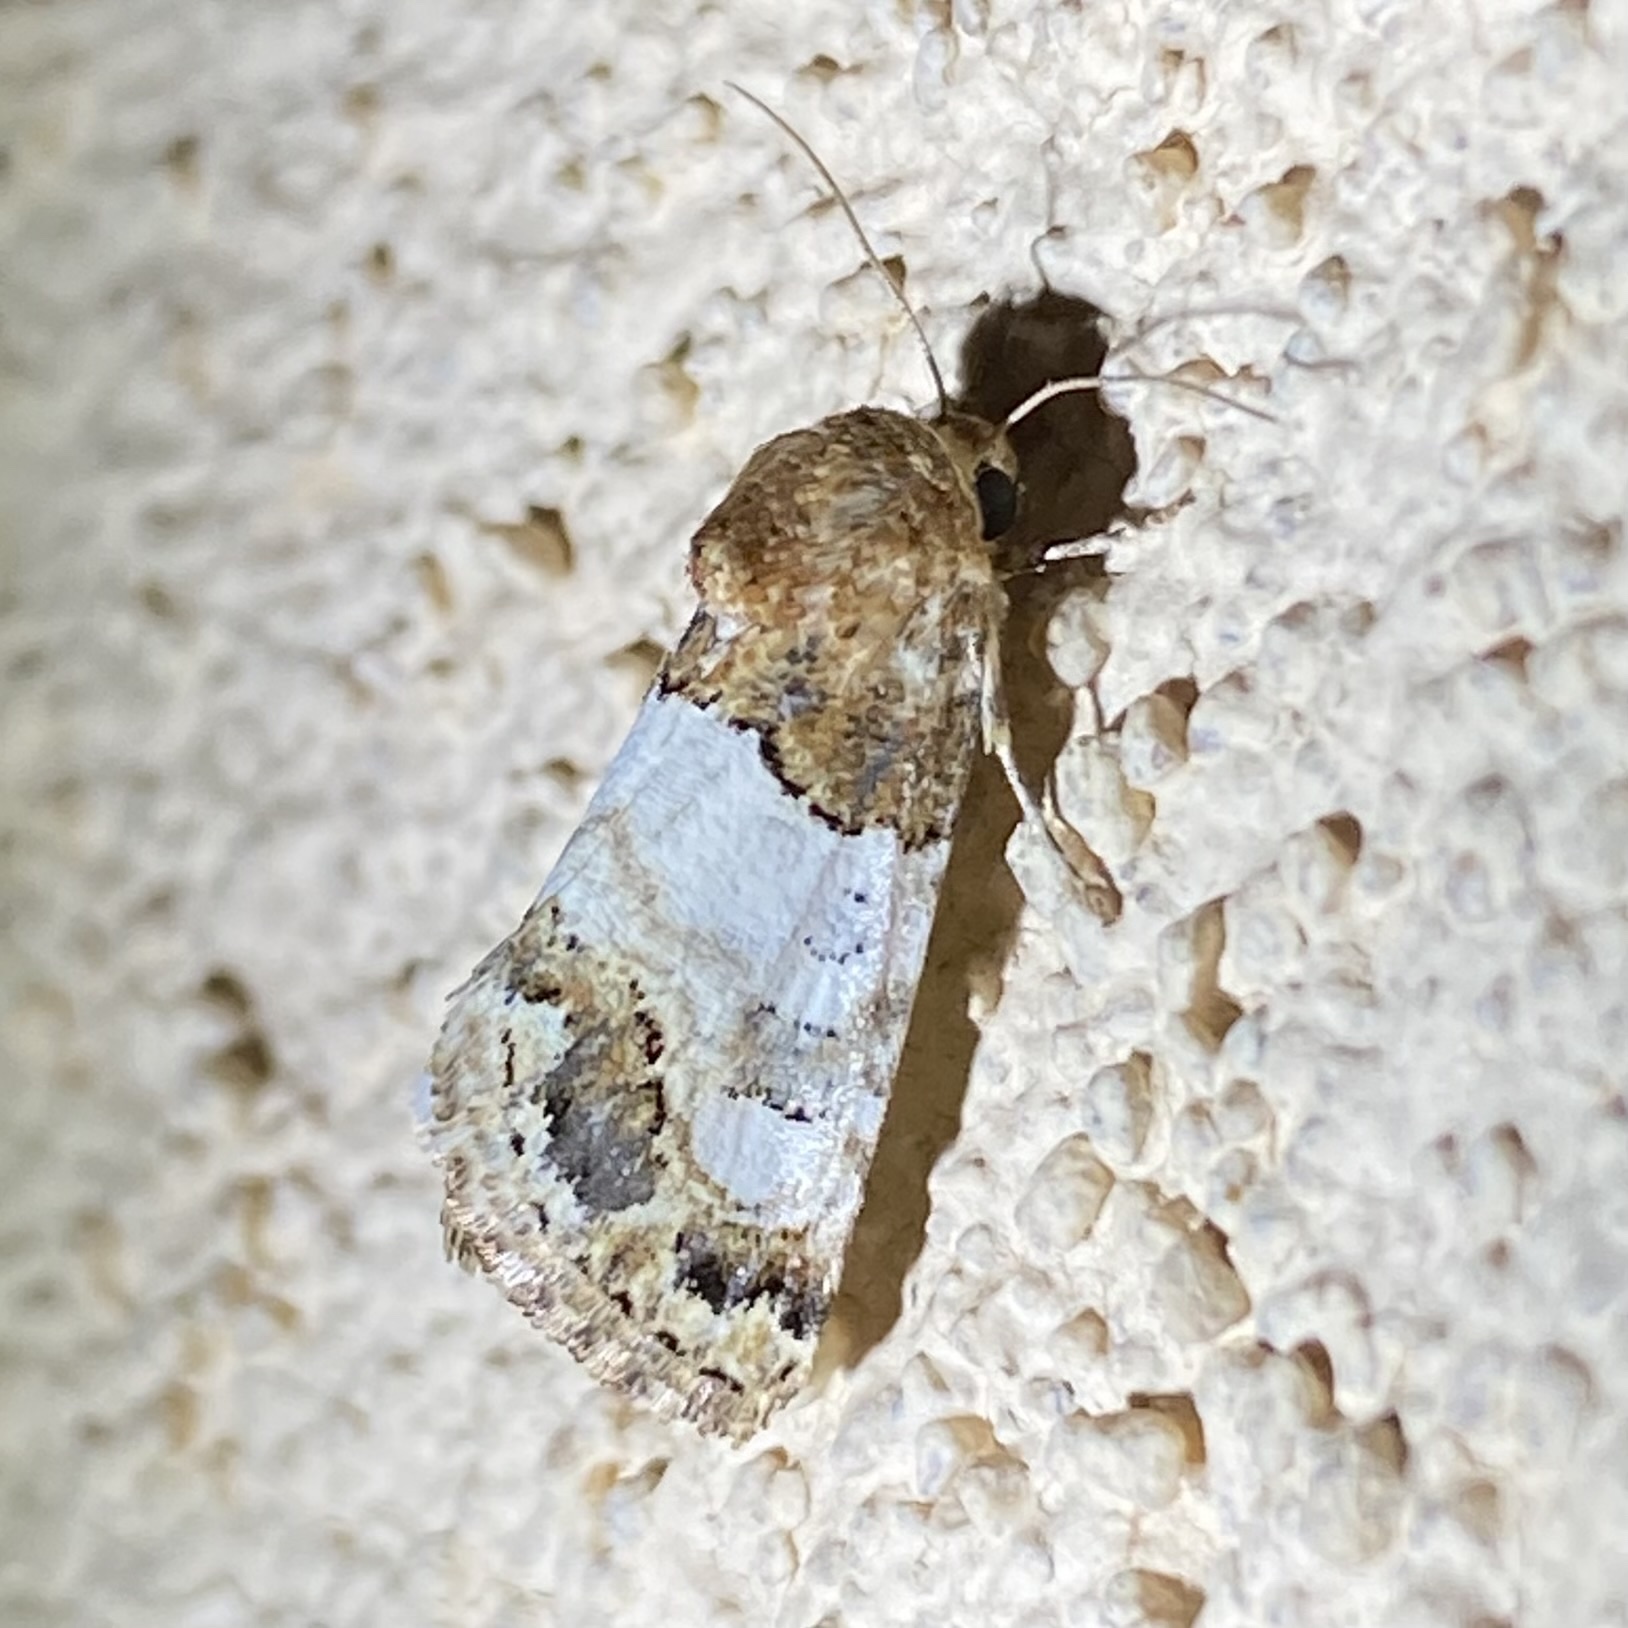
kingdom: Animalia
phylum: Arthropoda
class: Insecta
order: Lepidoptera
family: Noctuidae
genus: Schinia
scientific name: Schinia albafascia
